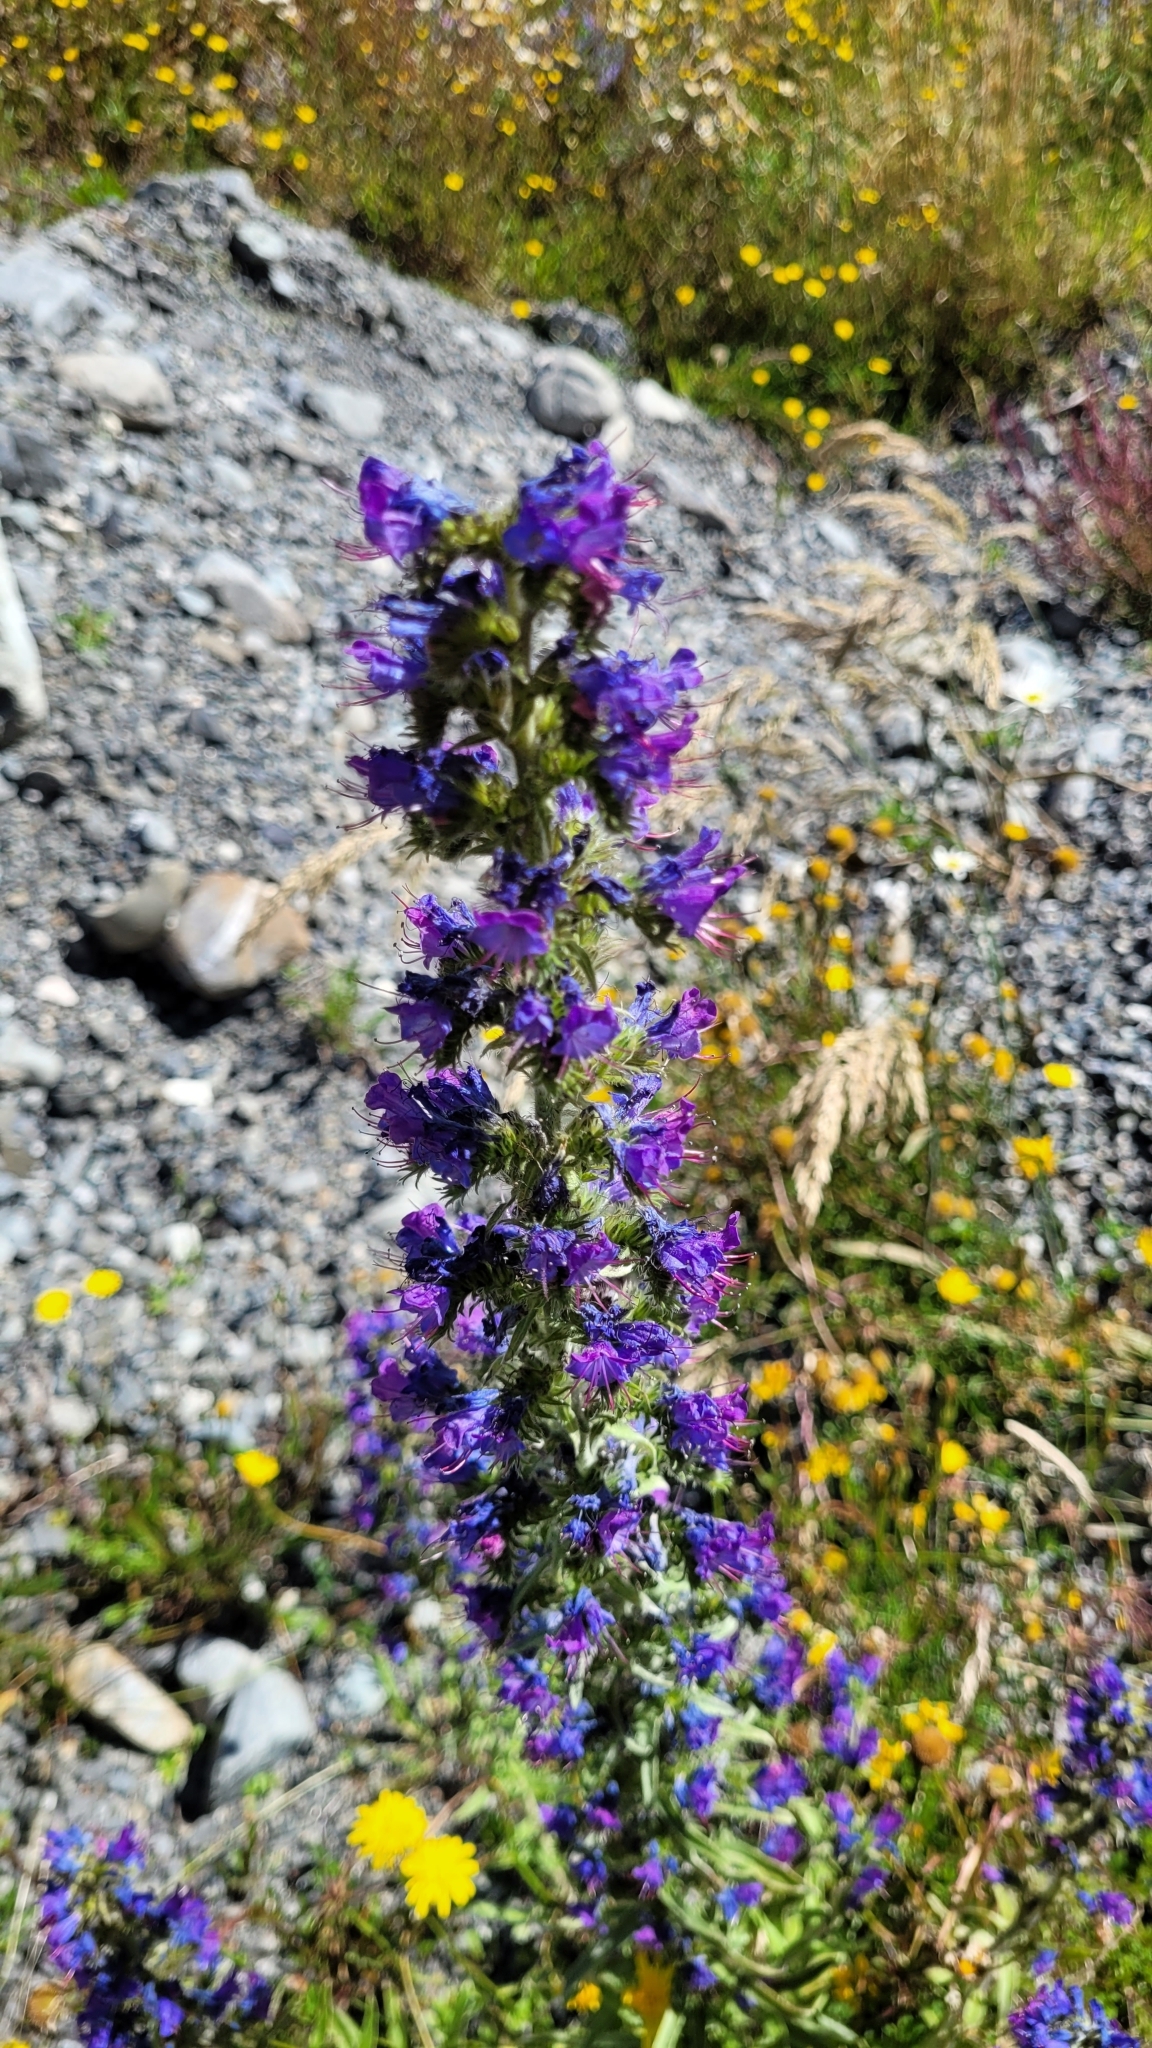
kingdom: Plantae
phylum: Tracheophyta
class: Magnoliopsida
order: Boraginales
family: Boraginaceae
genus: Echium
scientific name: Echium vulgare
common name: Common viper's bugloss
